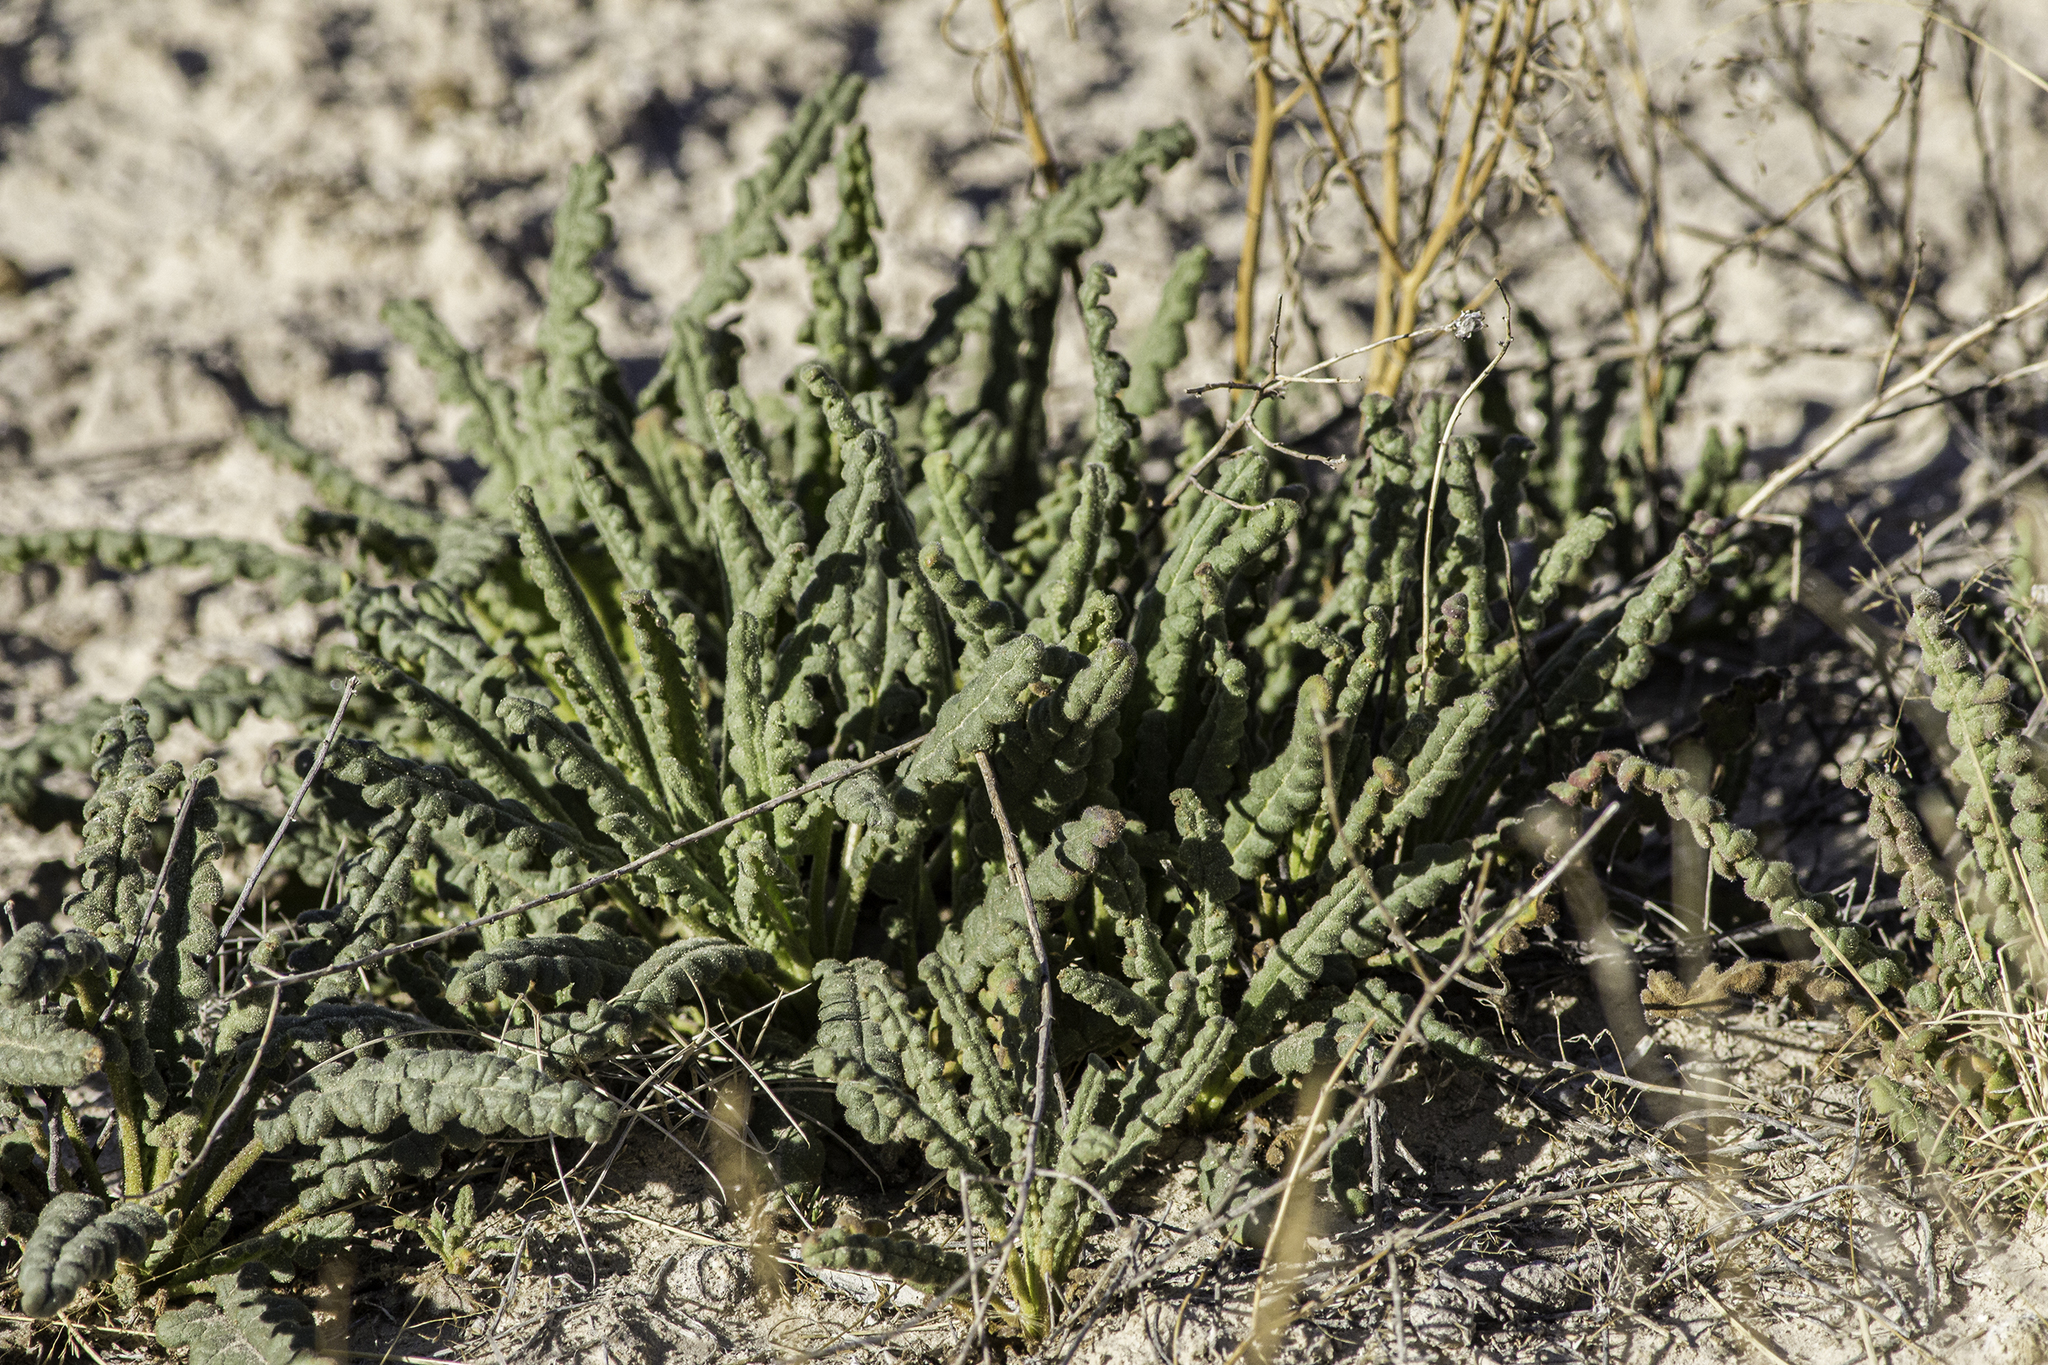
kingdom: Plantae
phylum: Tracheophyta
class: Magnoliopsida
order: Boraginales
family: Hydrophyllaceae
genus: Phacelia
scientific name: Phacelia integrifolia
